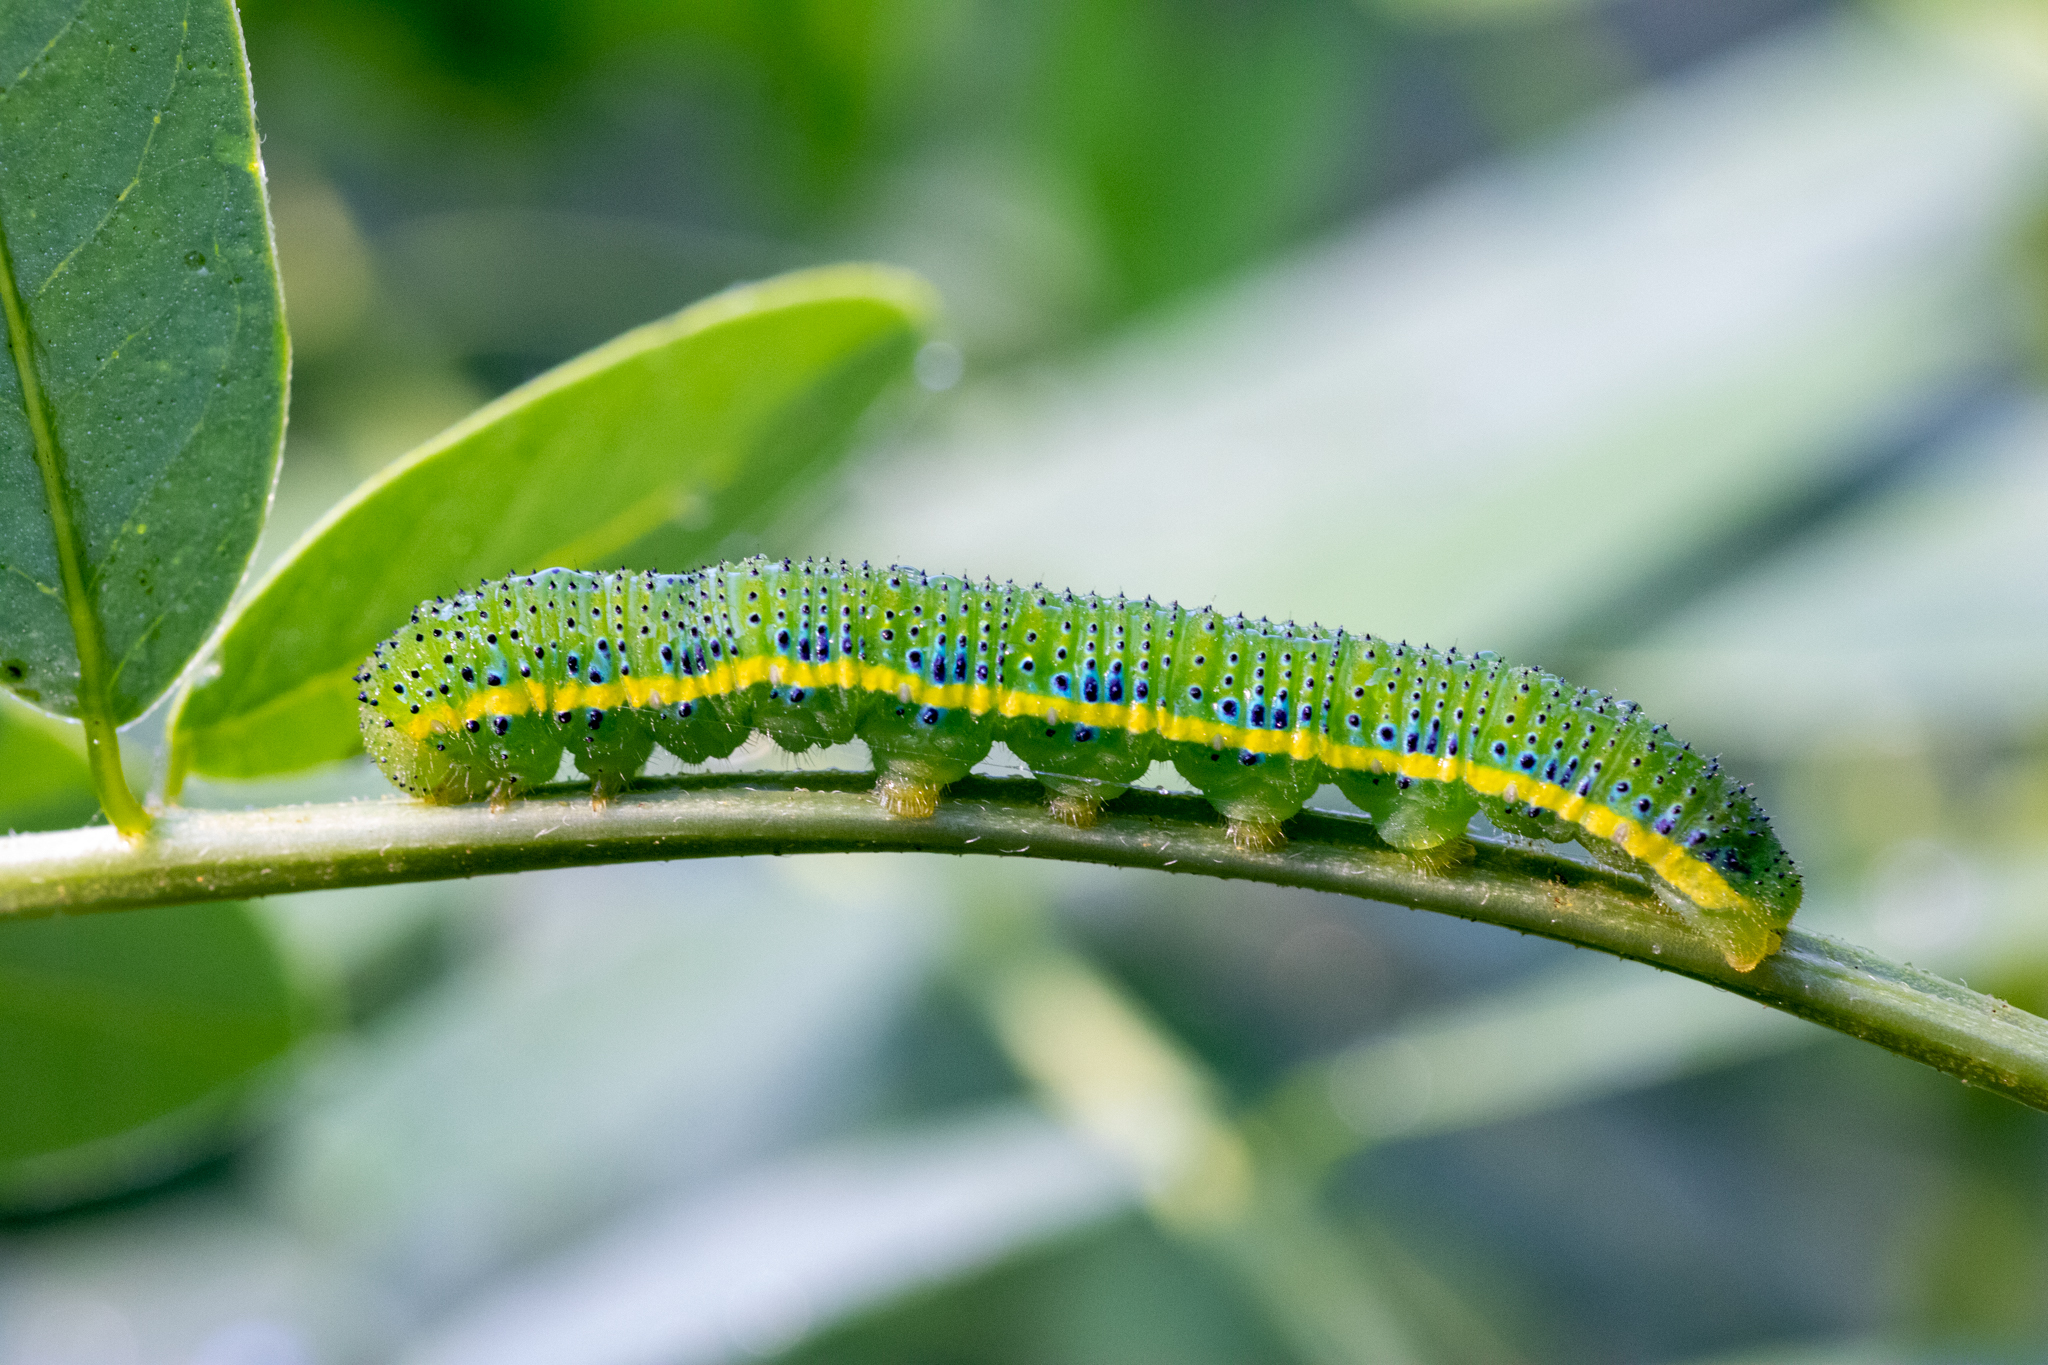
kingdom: Animalia
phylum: Arthropoda
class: Insecta
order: Lepidoptera
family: Pieridae
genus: Phoebis
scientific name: Phoebis sennae
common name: Cloudless sulphur
